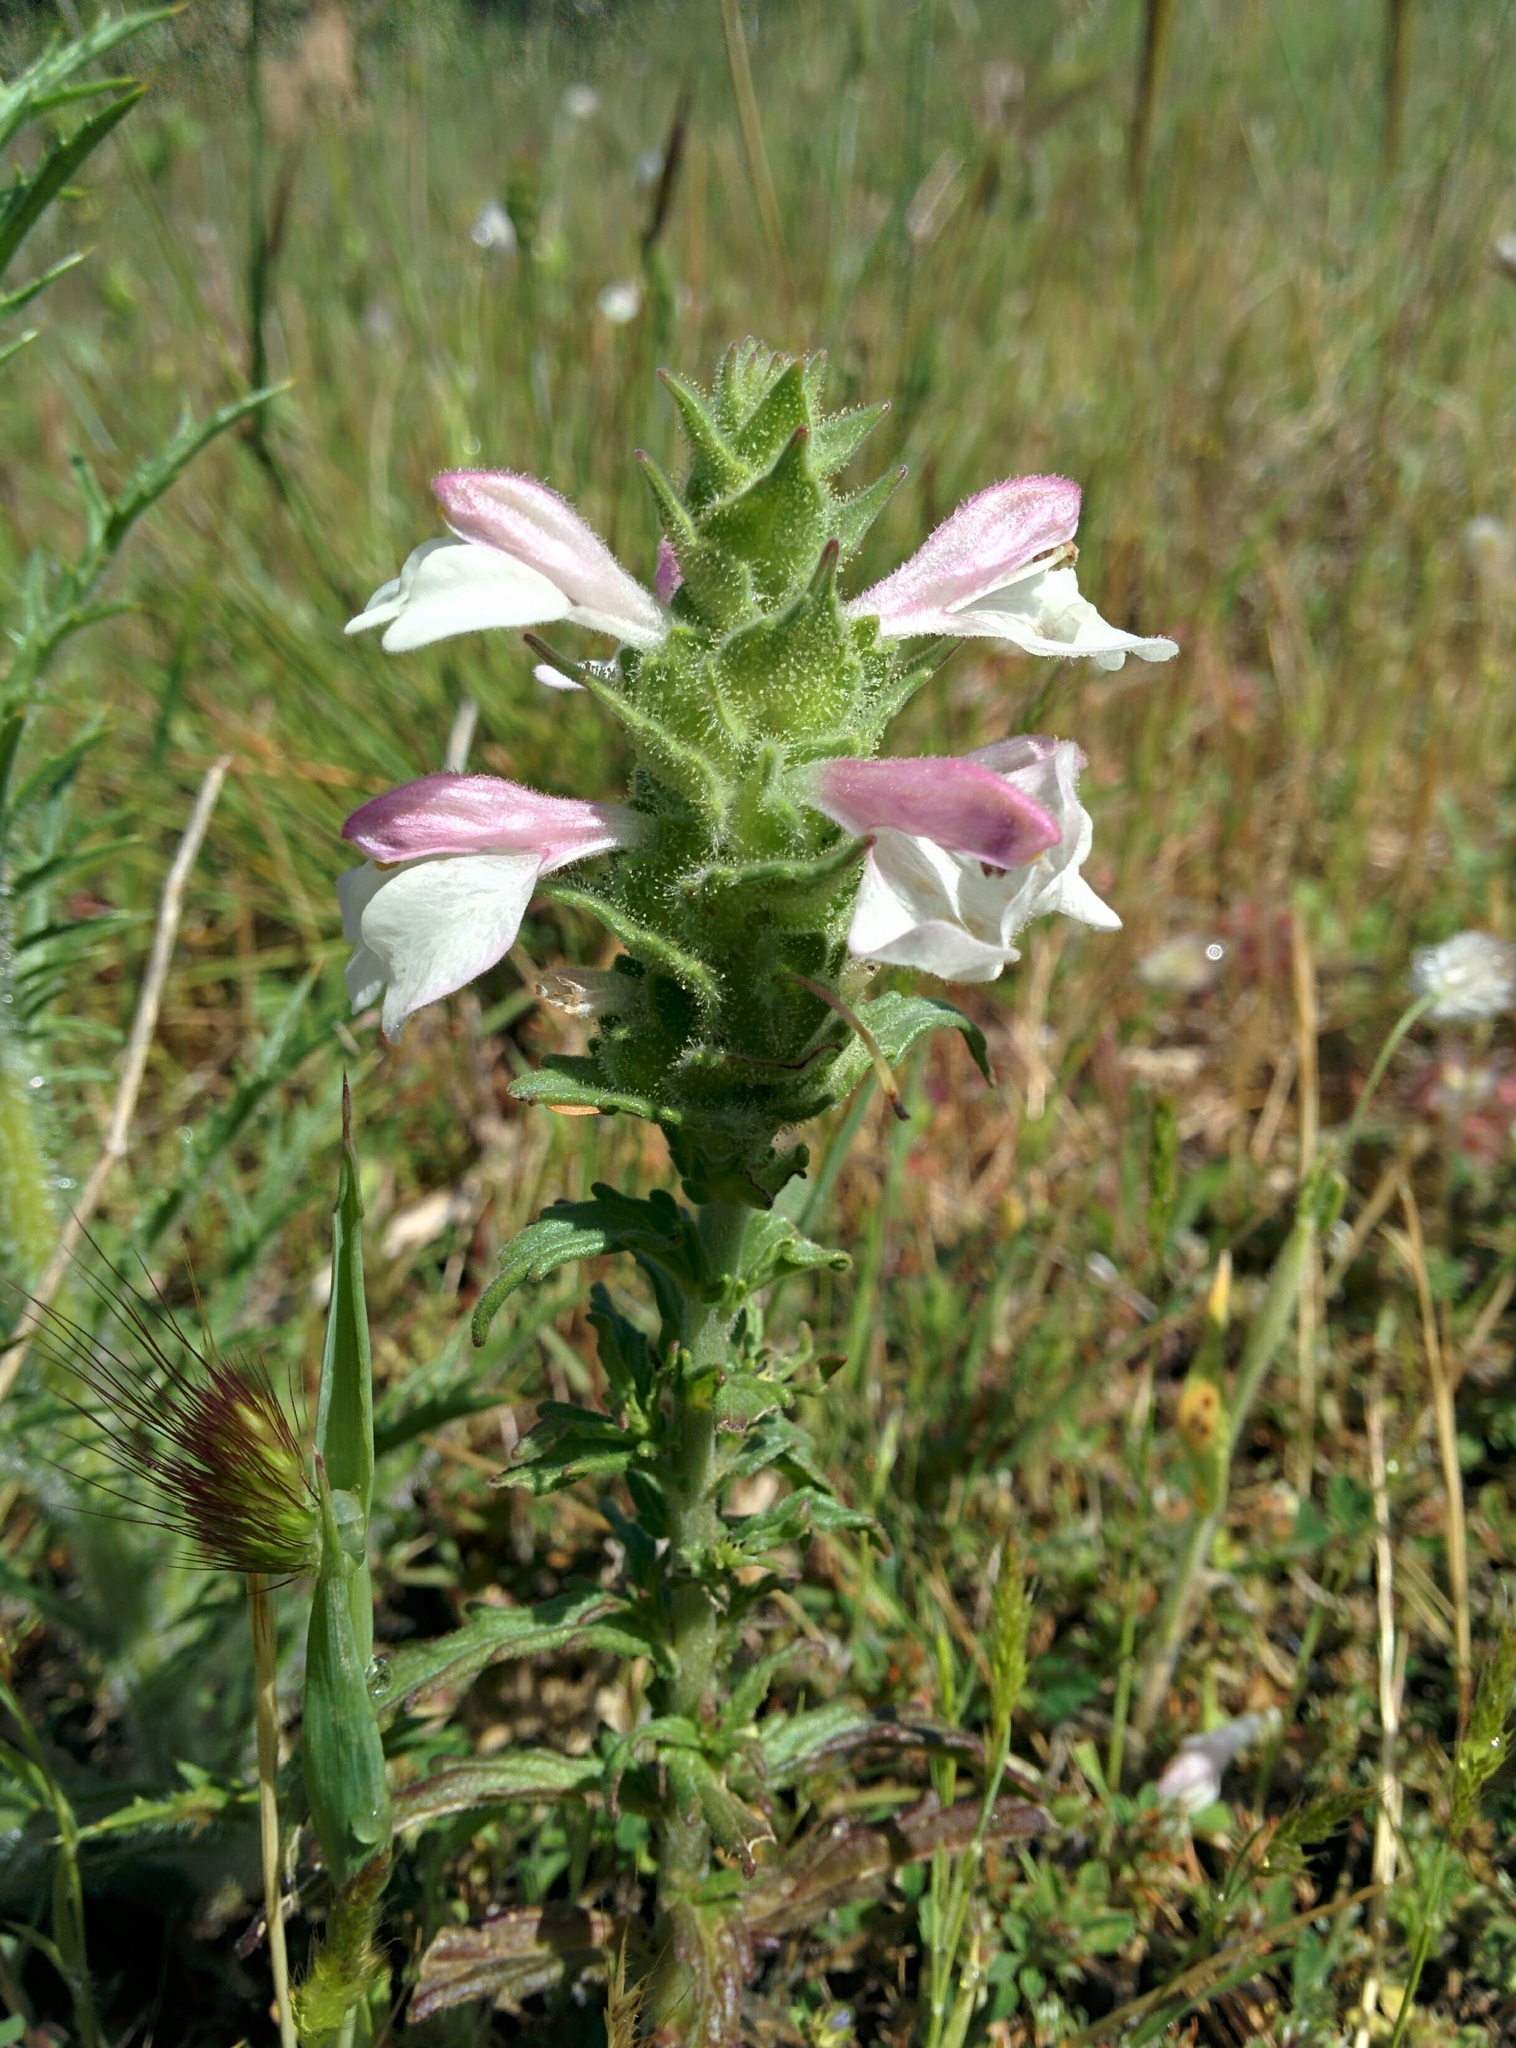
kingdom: Plantae
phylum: Tracheophyta
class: Magnoliopsida
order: Lamiales
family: Orobanchaceae
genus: Bellardia
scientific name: Bellardia trixago
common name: Mediterranean lineseed
